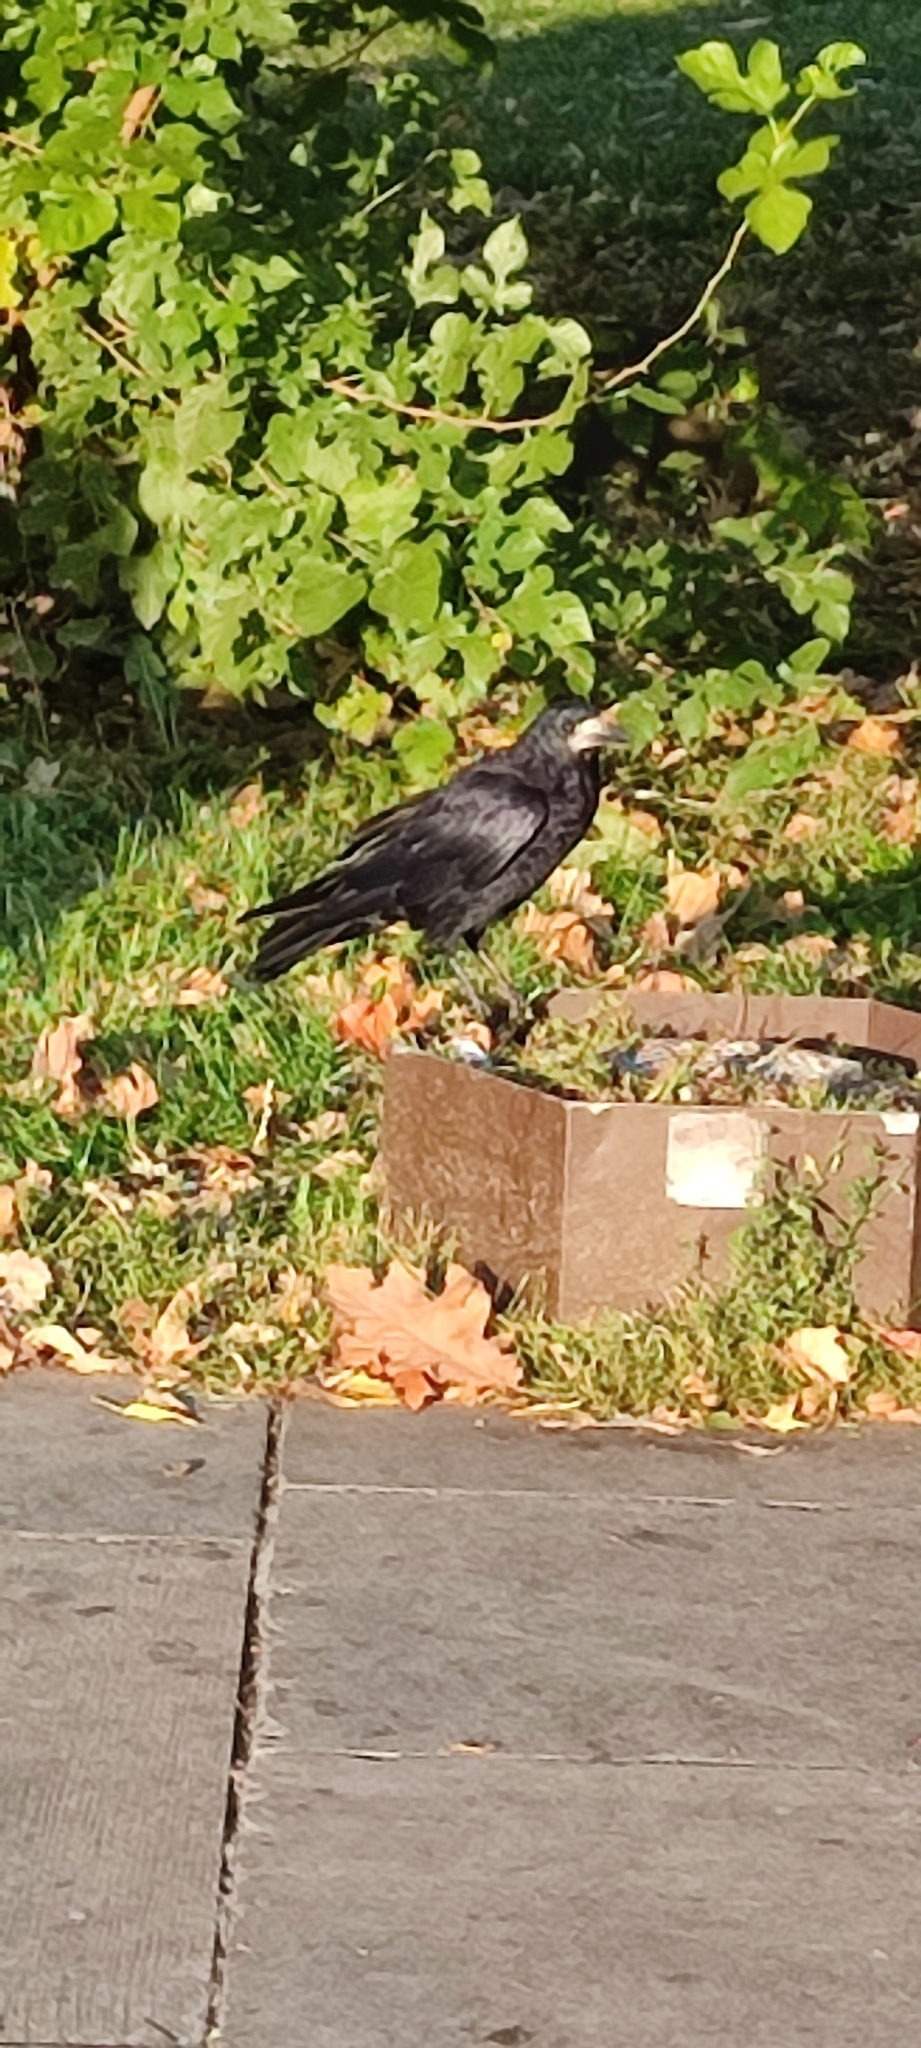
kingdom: Animalia
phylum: Chordata
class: Aves
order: Passeriformes
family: Corvidae
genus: Corvus
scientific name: Corvus frugilegus
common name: Rook
